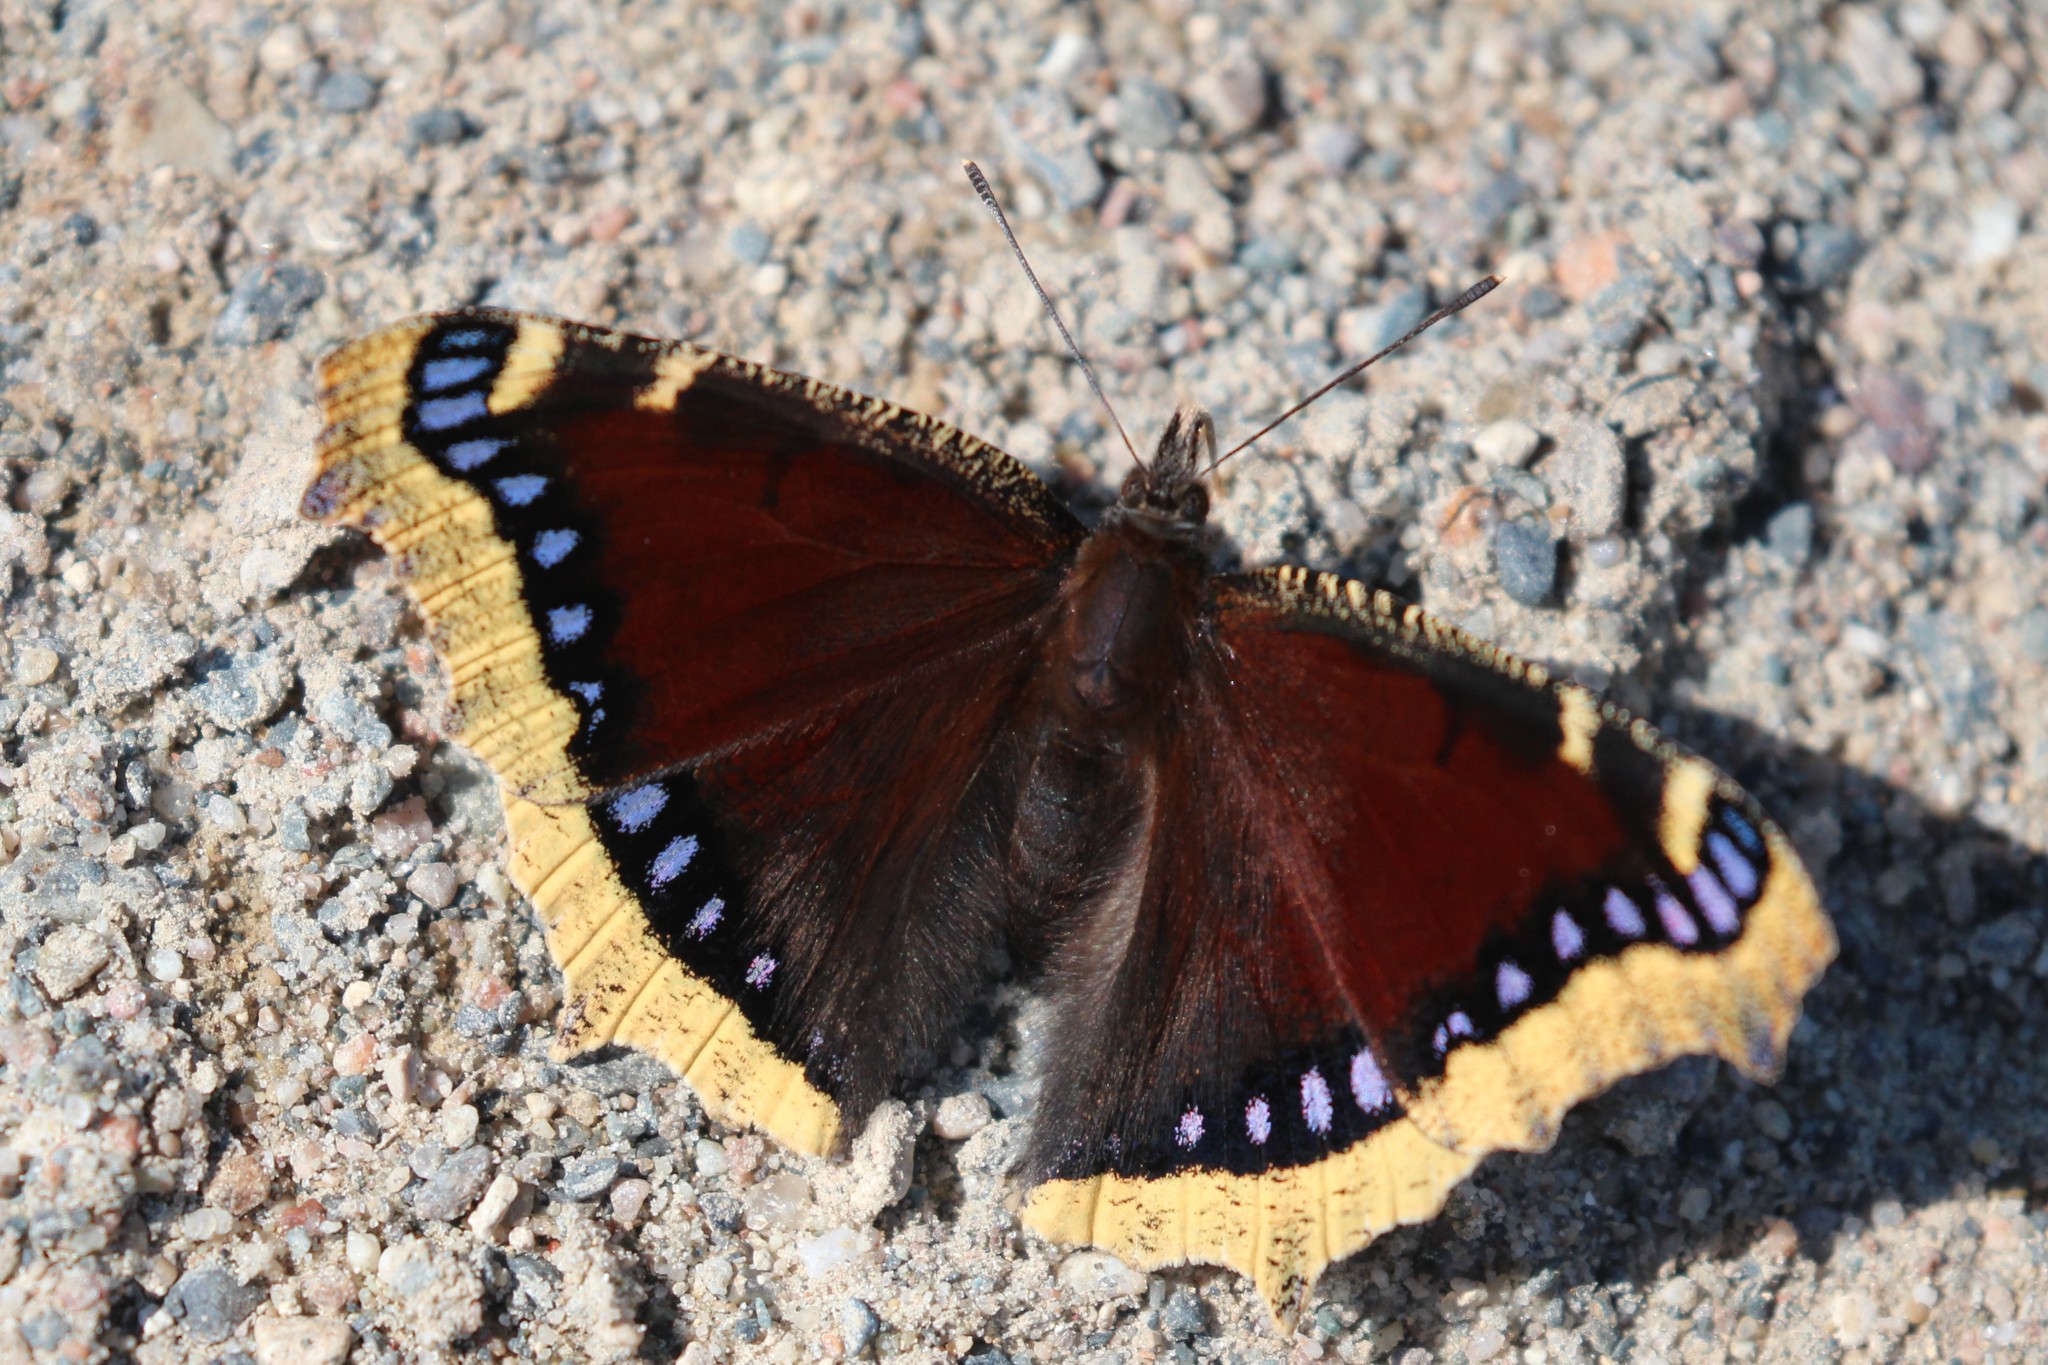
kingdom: Animalia
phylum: Arthropoda
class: Insecta
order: Lepidoptera
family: Nymphalidae
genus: Nymphalis
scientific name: Nymphalis antiopa
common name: Camberwell beauty
